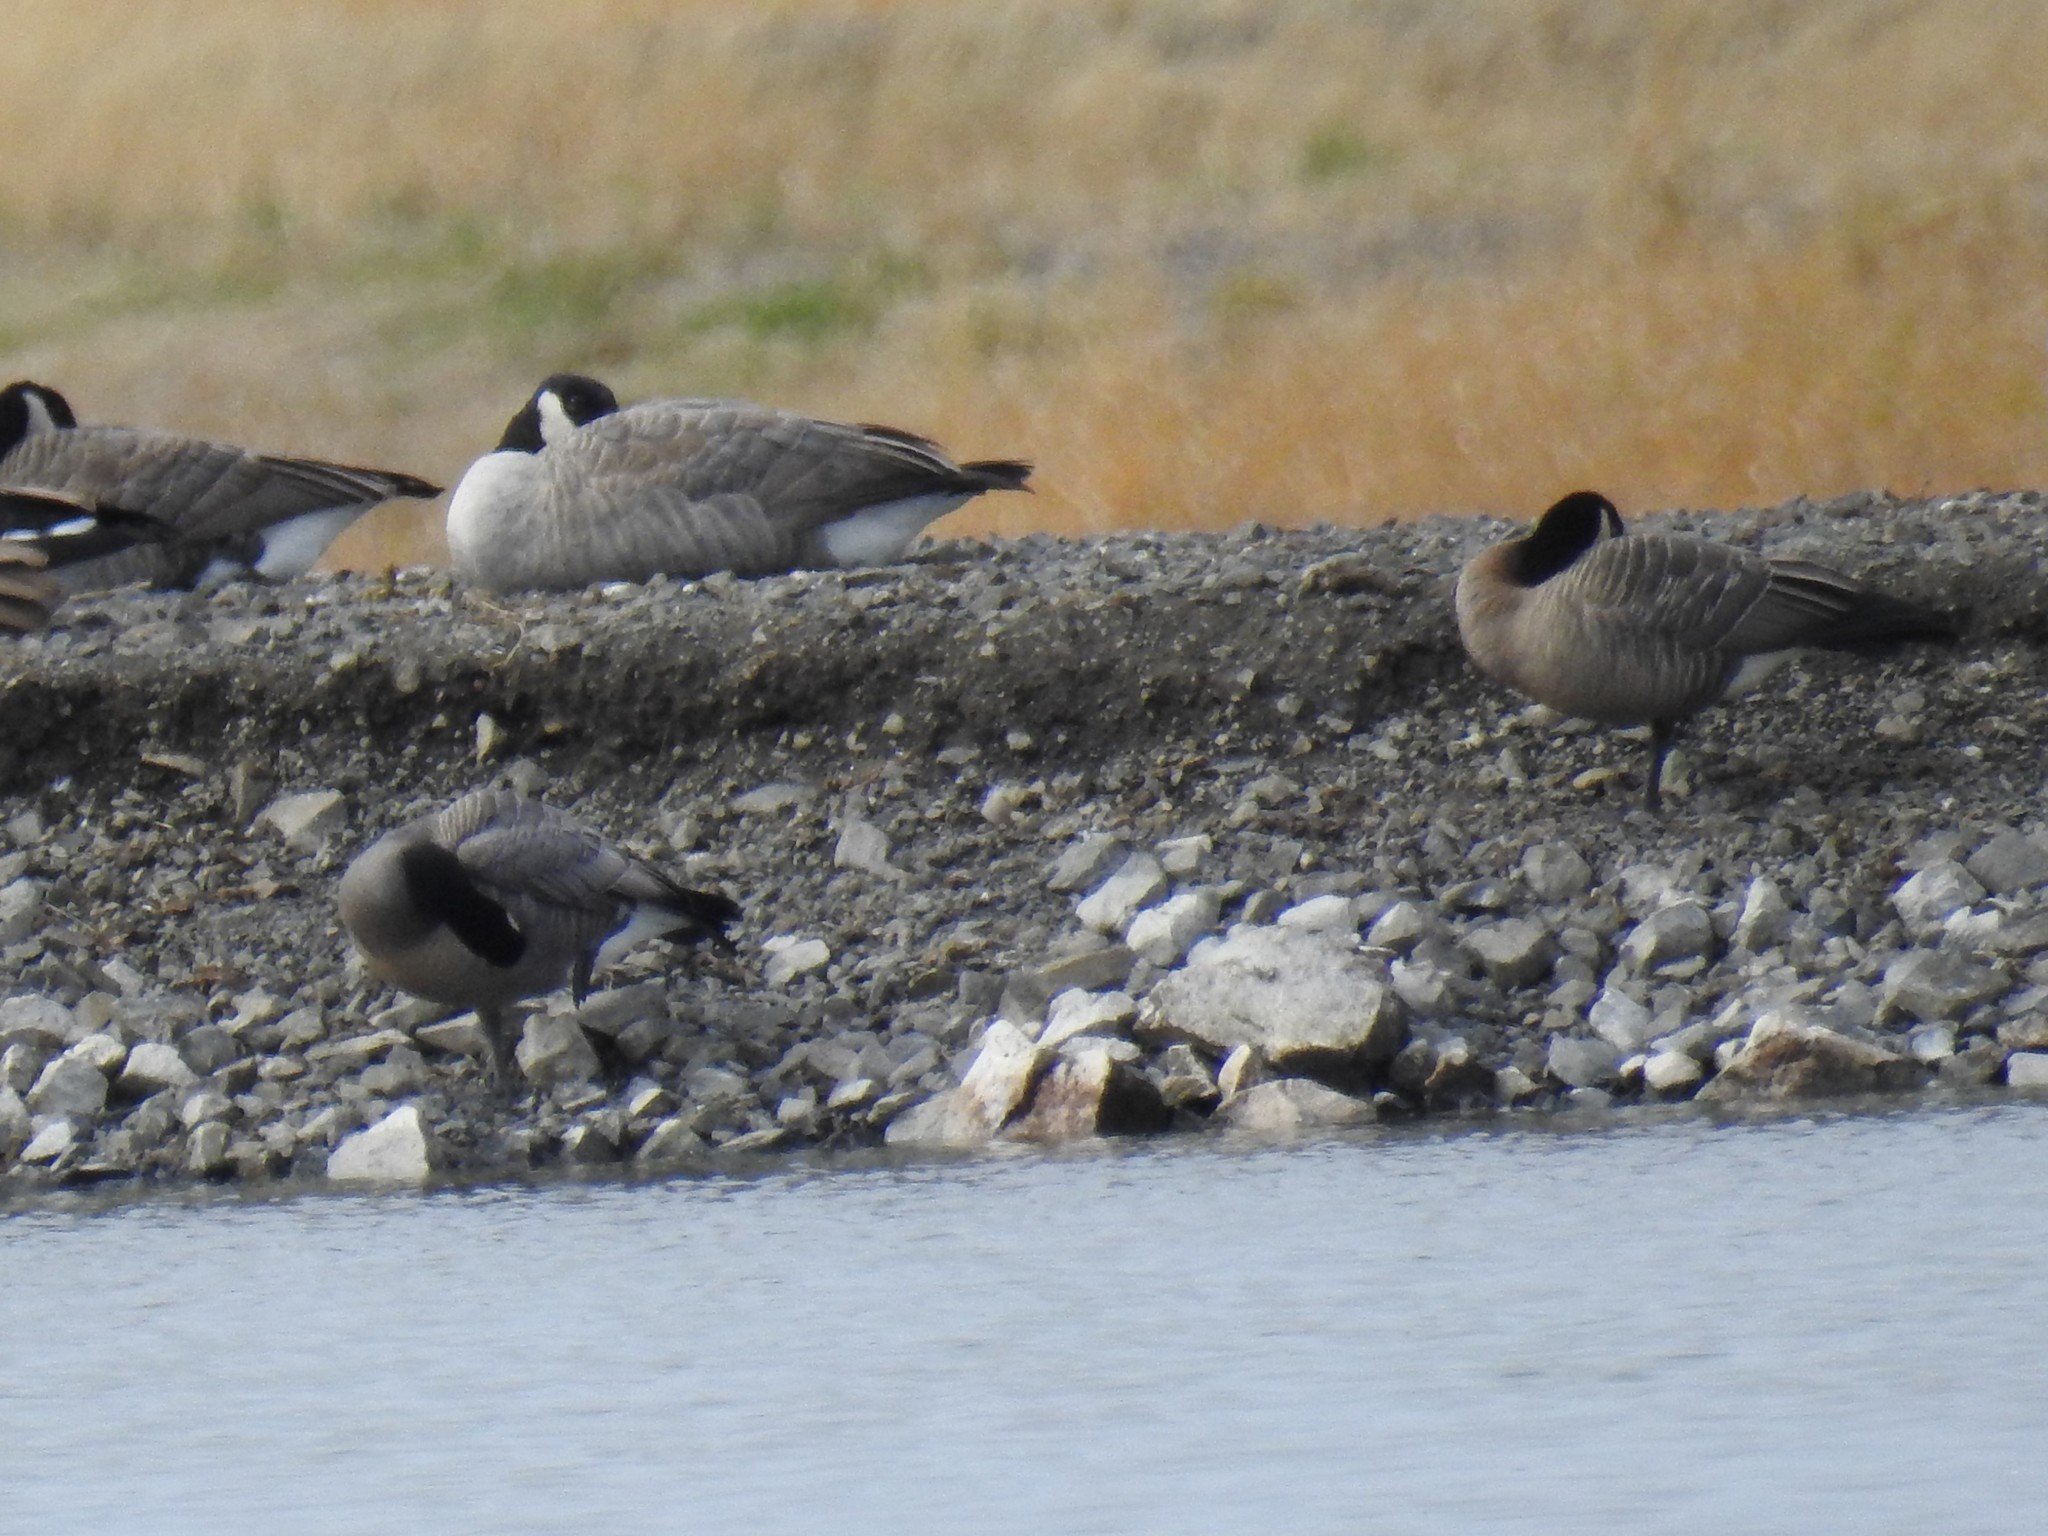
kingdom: Animalia
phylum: Chordata
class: Aves
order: Anseriformes
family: Anatidae
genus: Branta
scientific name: Branta canadensis
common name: Canada goose
